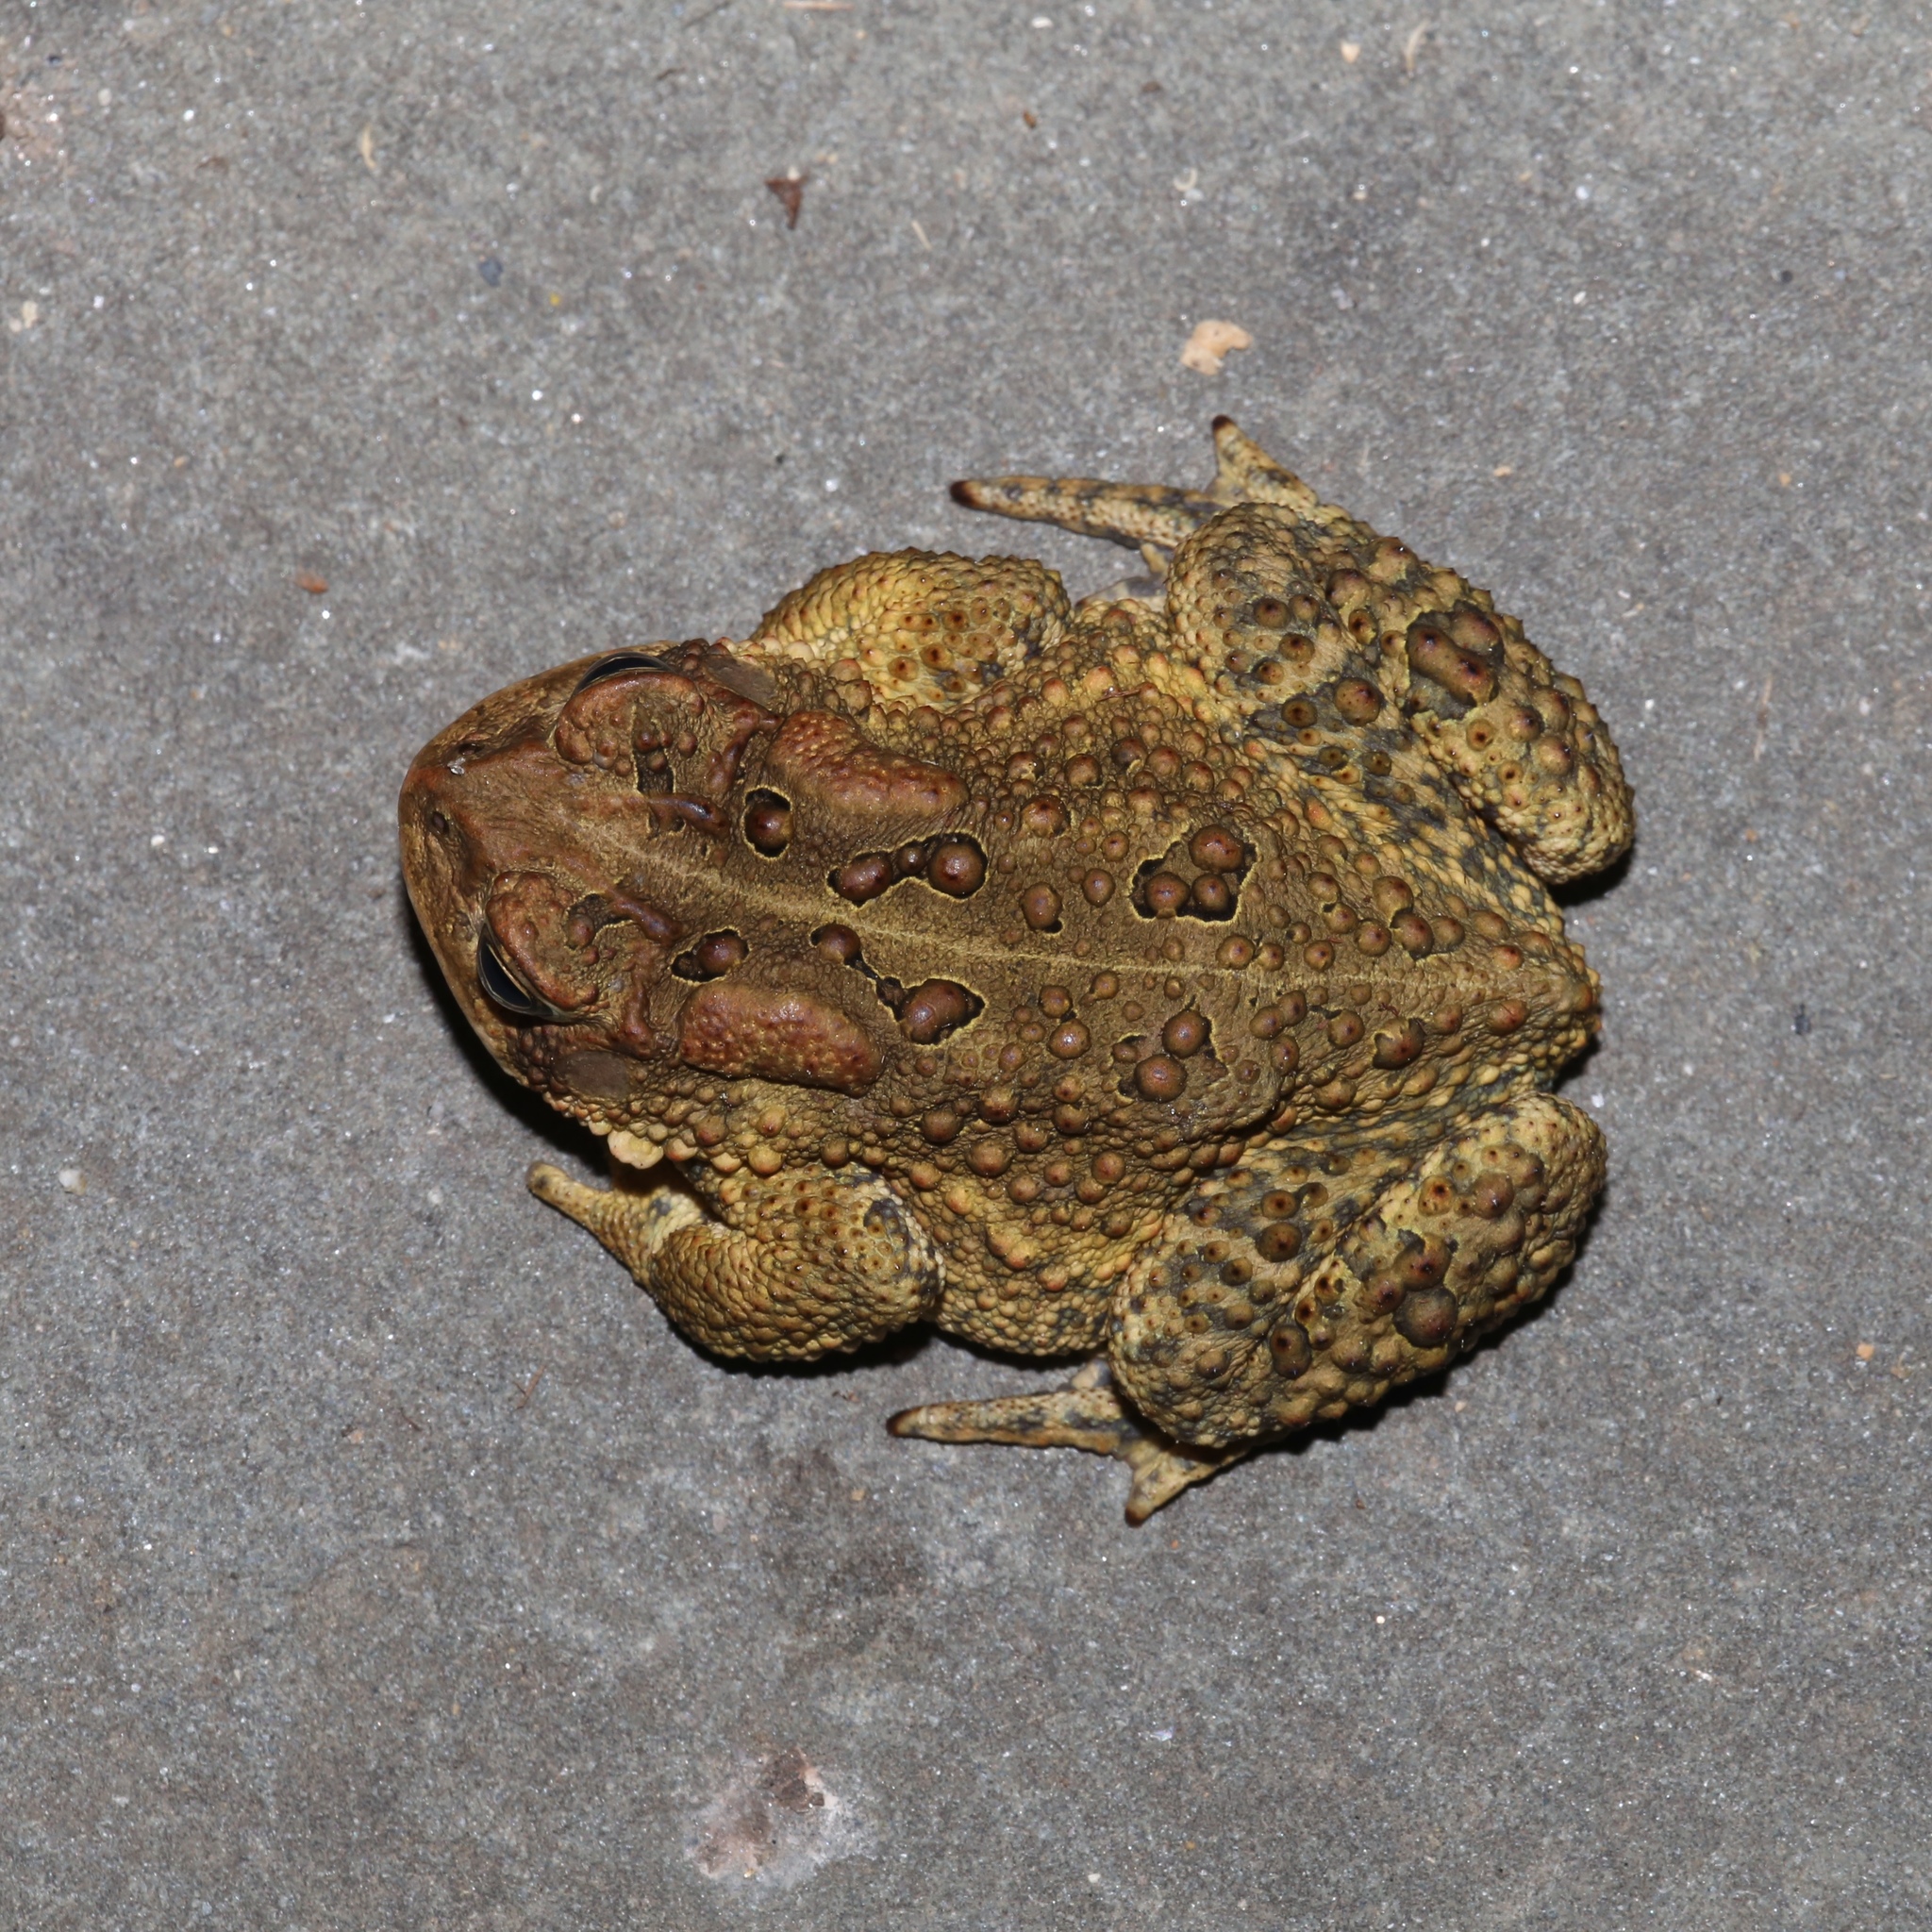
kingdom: Animalia
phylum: Chordata
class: Amphibia
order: Anura
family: Bufonidae
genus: Anaxyrus
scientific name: Anaxyrus americanus
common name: American toad
